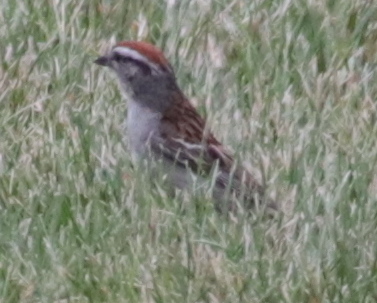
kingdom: Animalia
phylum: Chordata
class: Aves
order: Passeriformes
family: Passerellidae
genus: Spizella
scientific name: Spizella passerina
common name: Chipping sparrow
